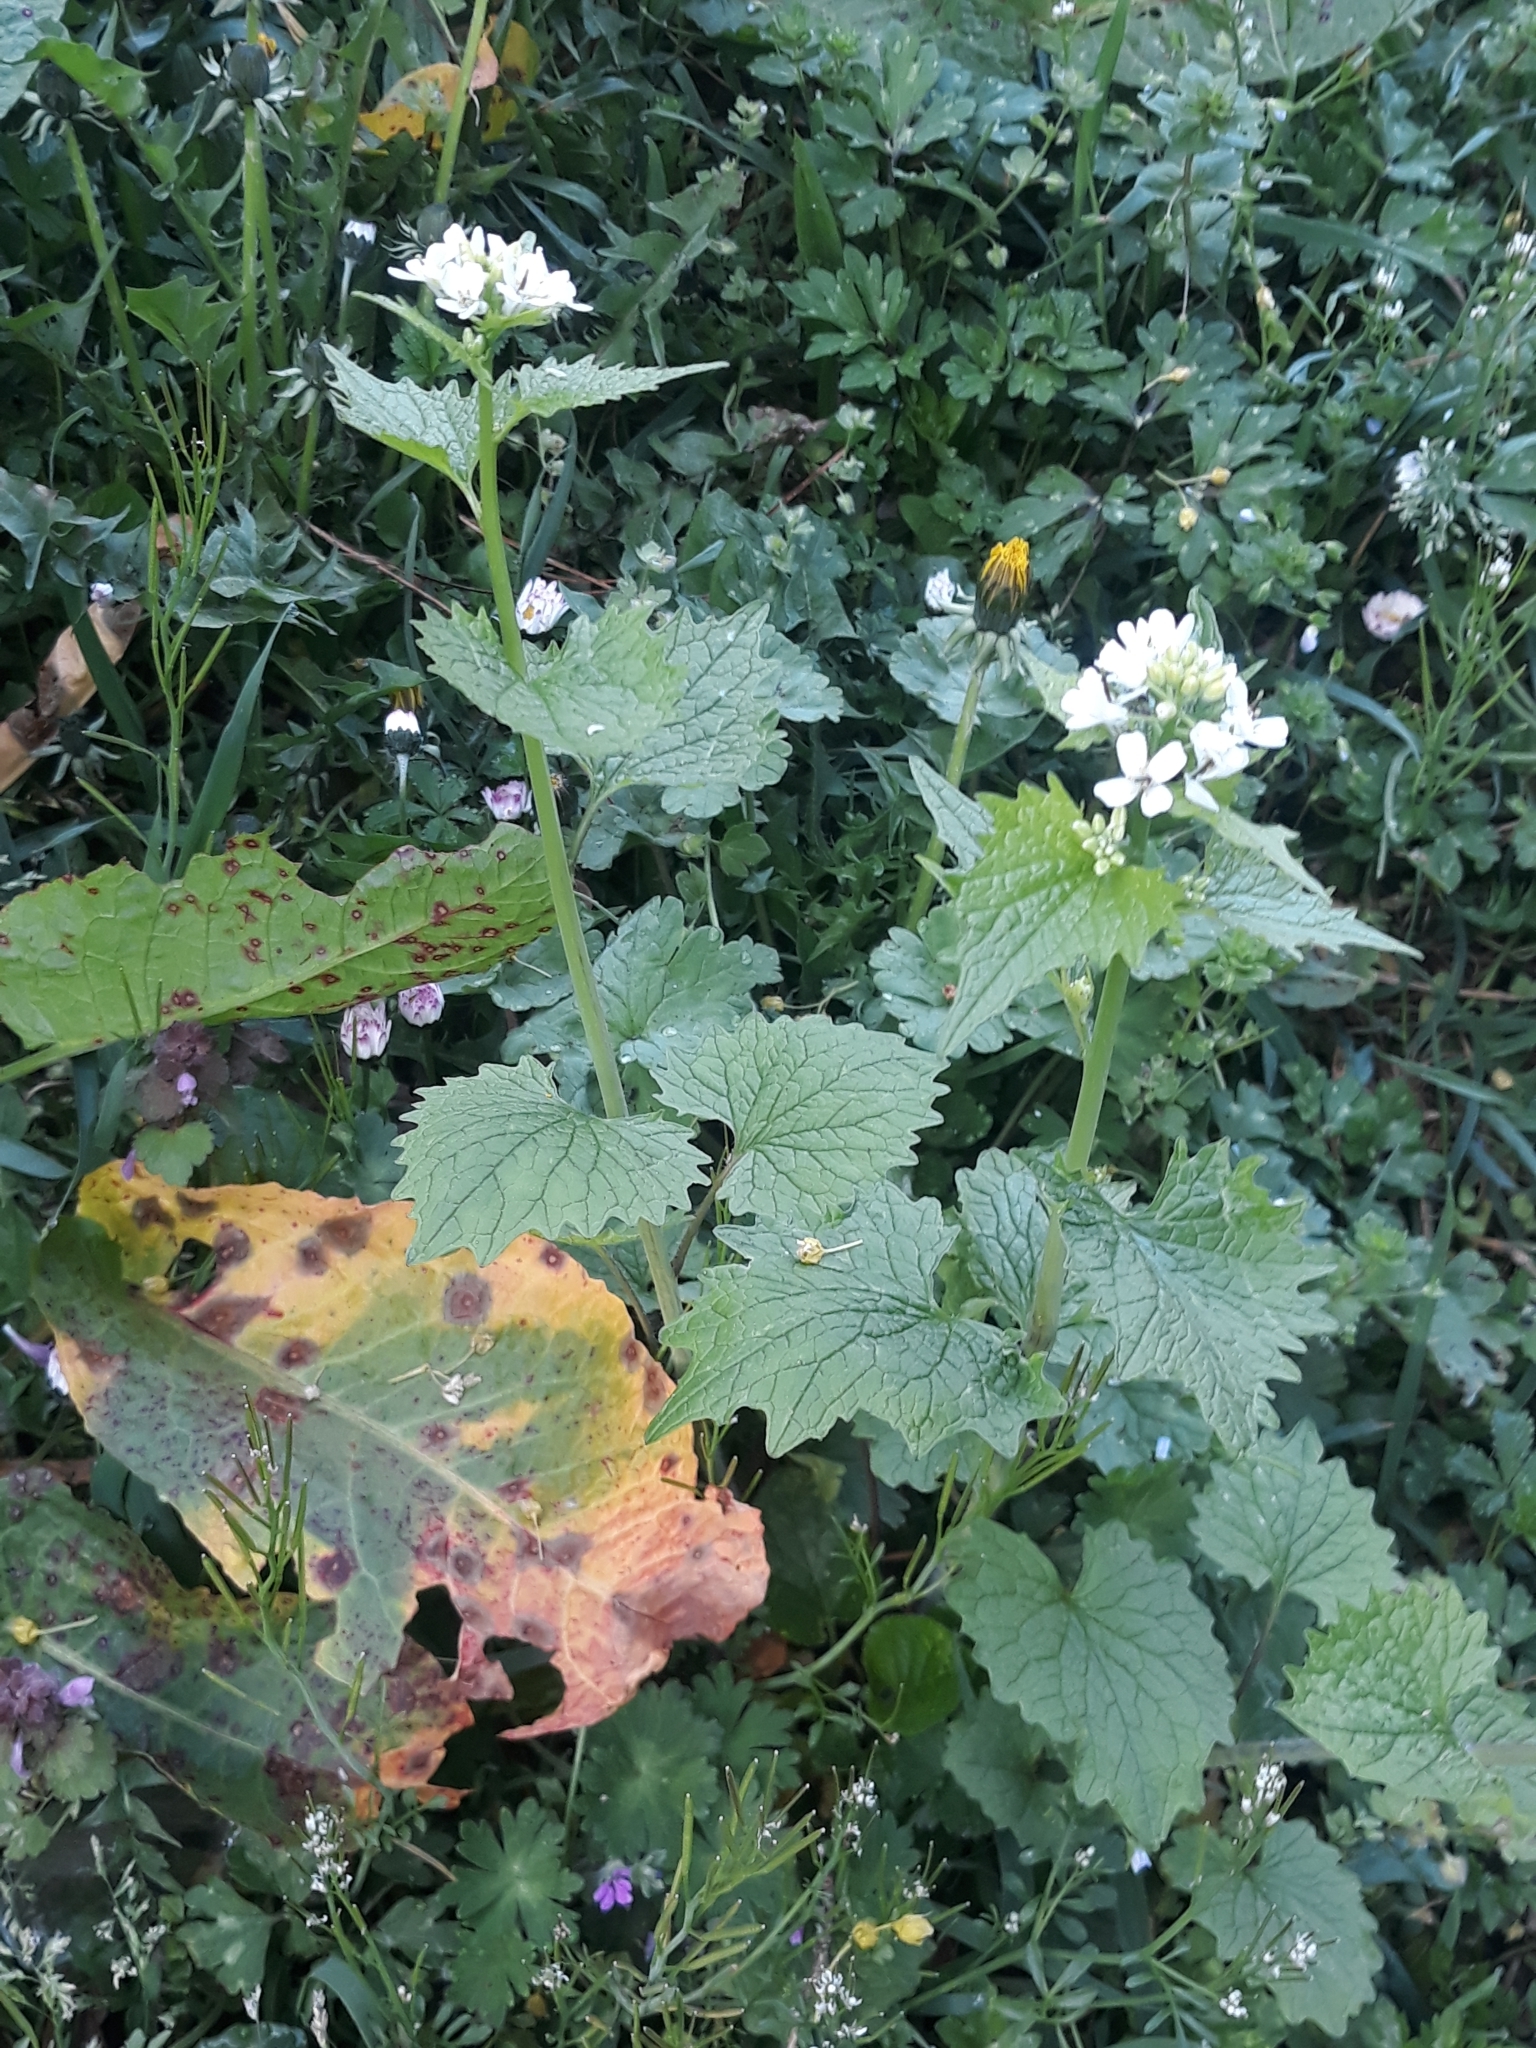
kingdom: Plantae
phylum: Tracheophyta
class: Magnoliopsida
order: Brassicales
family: Brassicaceae
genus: Alliaria
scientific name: Alliaria petiolata
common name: Garlic mustard
